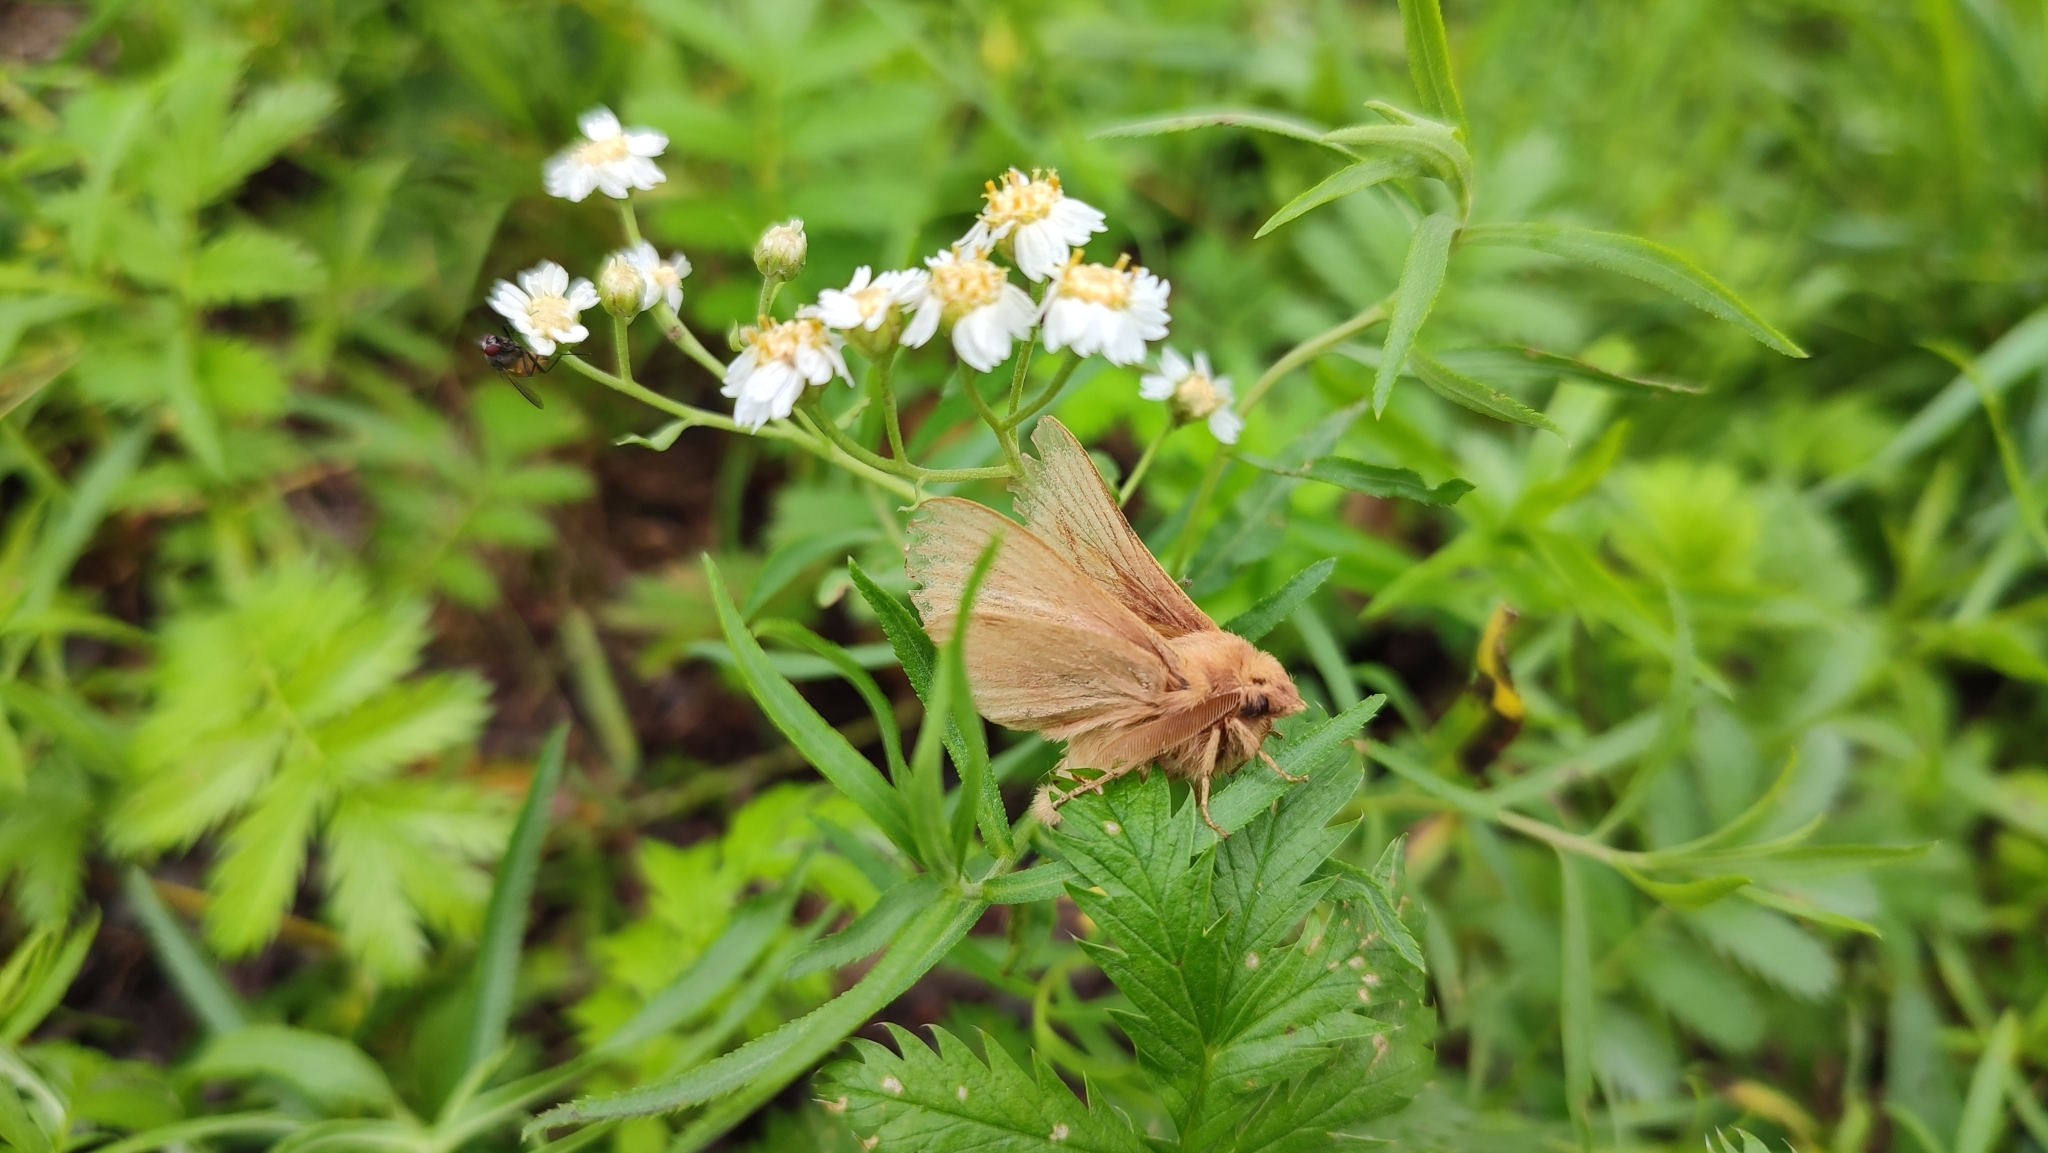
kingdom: Animalia
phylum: Arthropoda
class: Insecta
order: Lepidoptera
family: Lasiocampidae
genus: Euthrix
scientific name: Euthrix potatoria
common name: Drinker
